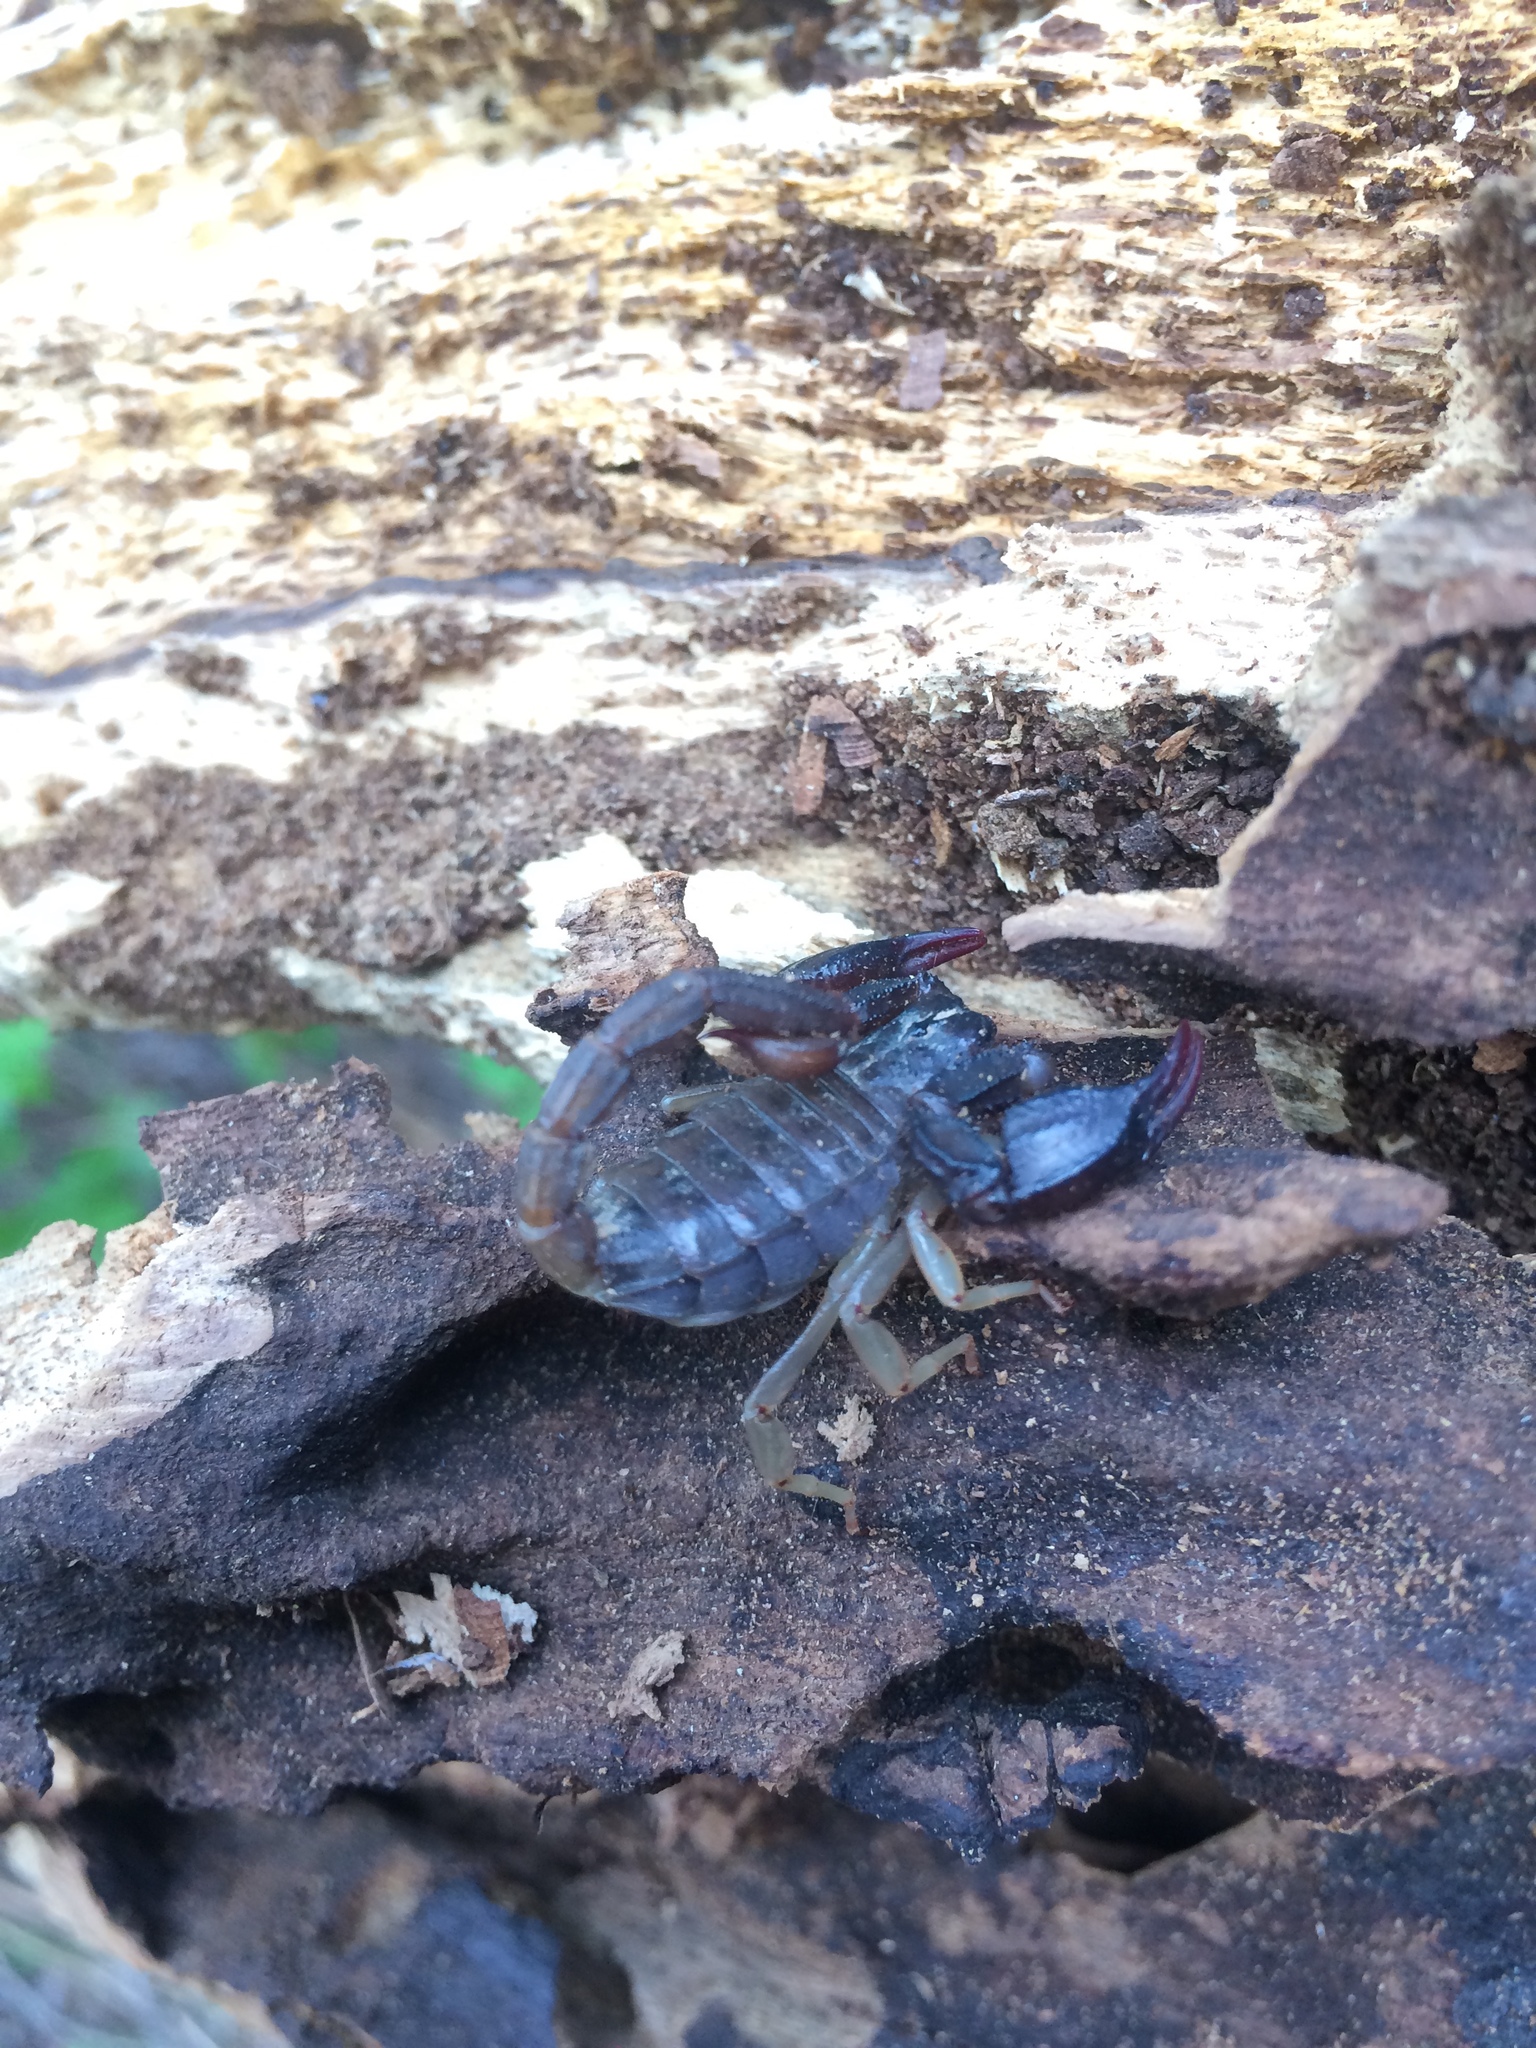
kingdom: Animalia
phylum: Arthropoda
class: Arachnida
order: Scorpiones
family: Chactidae
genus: Uroctonus
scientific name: Uroctonus mordax
